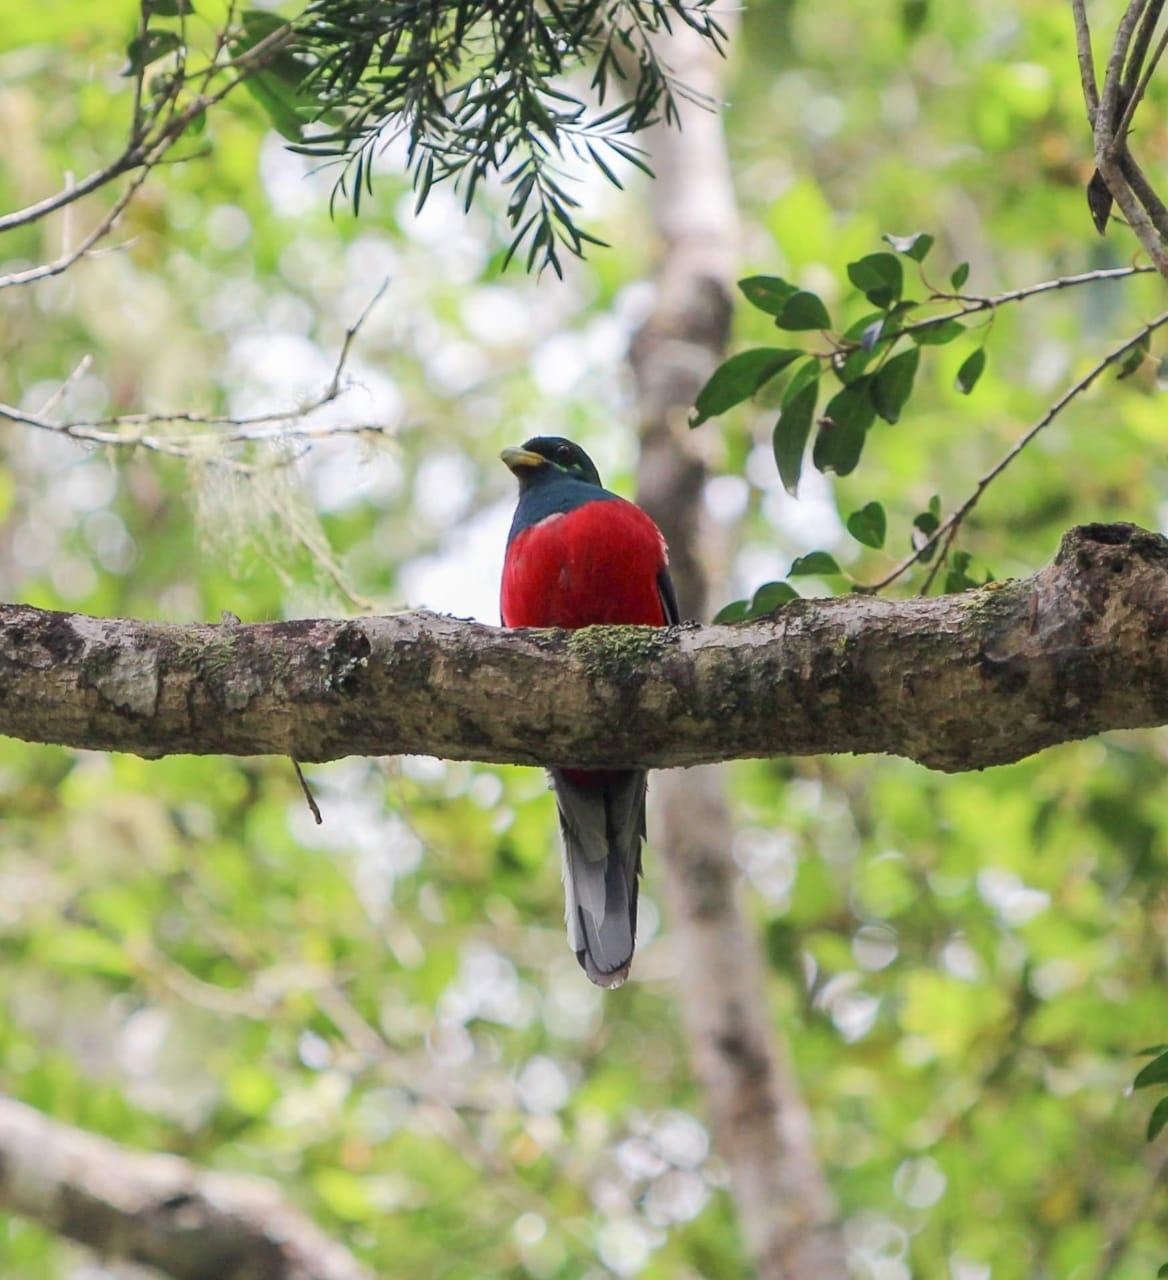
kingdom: Animalia
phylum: Chordata
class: Aves
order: Trogoniformes
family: Trogonidae
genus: Apaloderma
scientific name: Apaloderma narina
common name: Narina trogon
